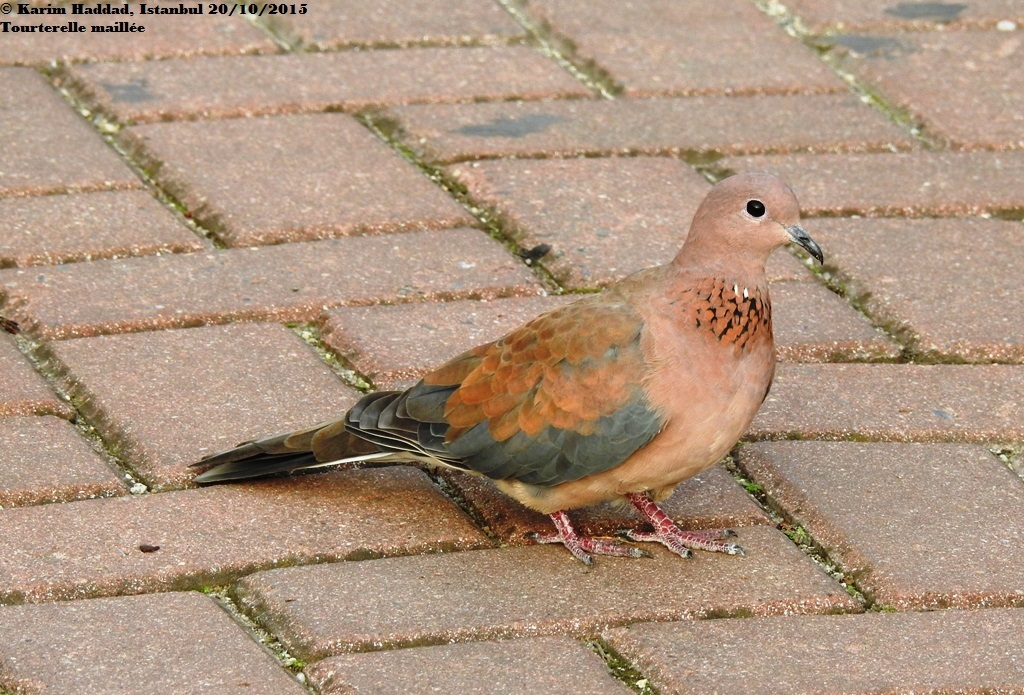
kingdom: Animalia
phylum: Chordata
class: Aves
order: Columbiformes
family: Columbidae
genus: Spilopelia
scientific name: Spilopelia senegalensis
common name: Laughing dove
